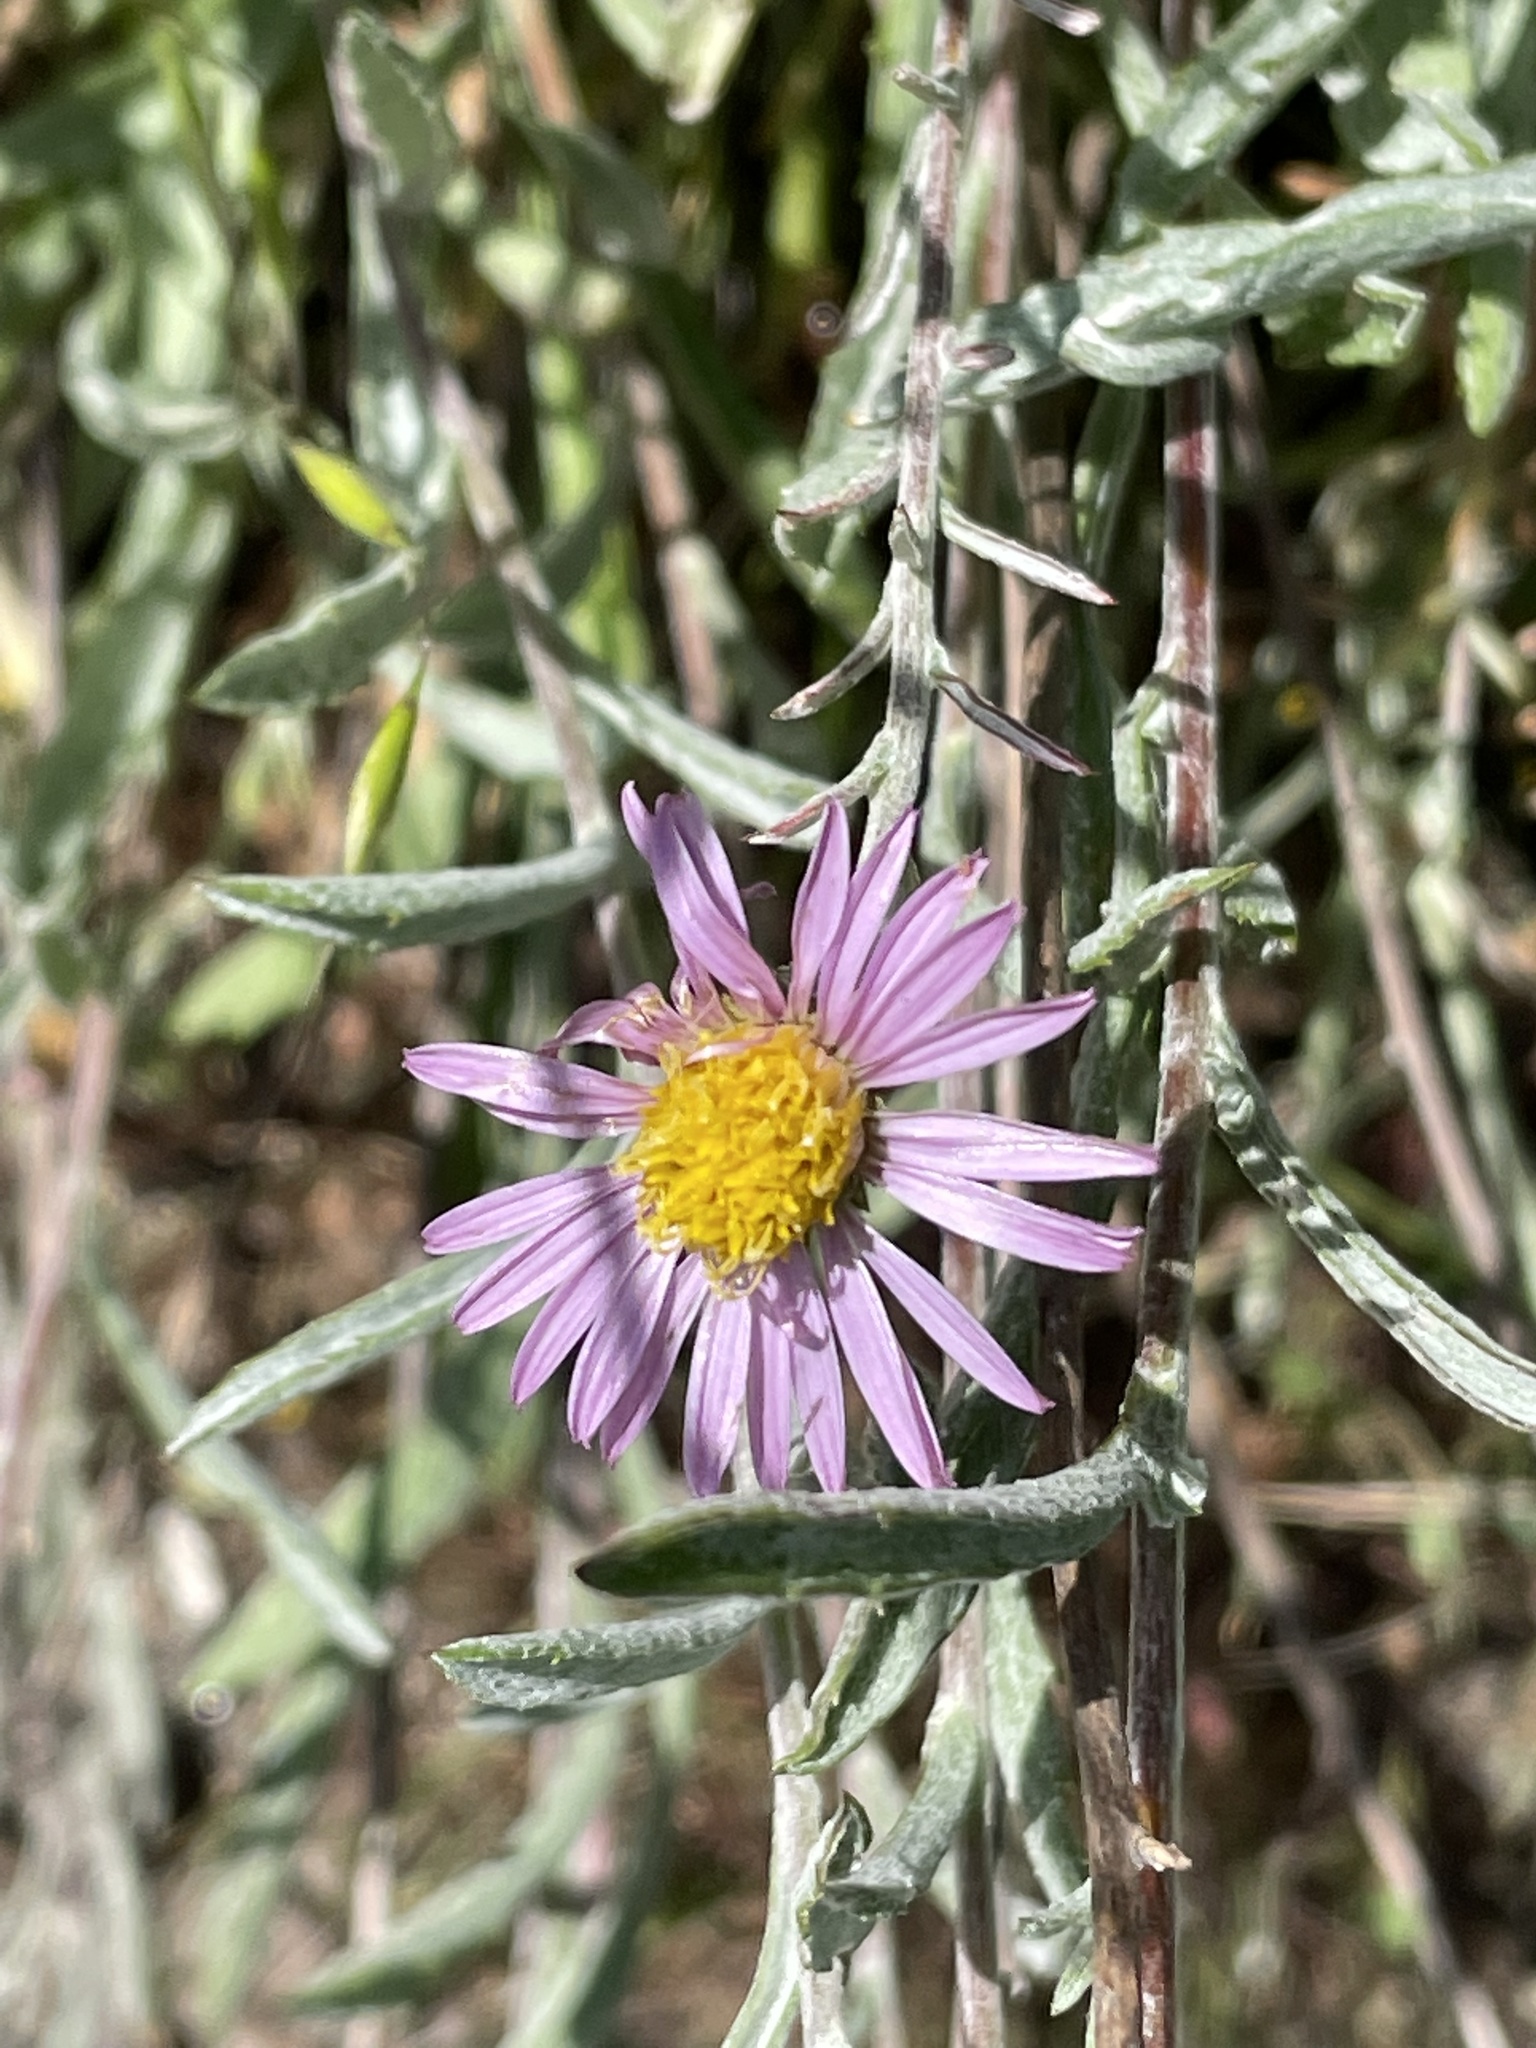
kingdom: Plantae
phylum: Tracheophyta
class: Magnoliopsida
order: Asterales
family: Asteraceae
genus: Corethrogyne
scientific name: Corethrogyne filaginifolia
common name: Sand-aster
